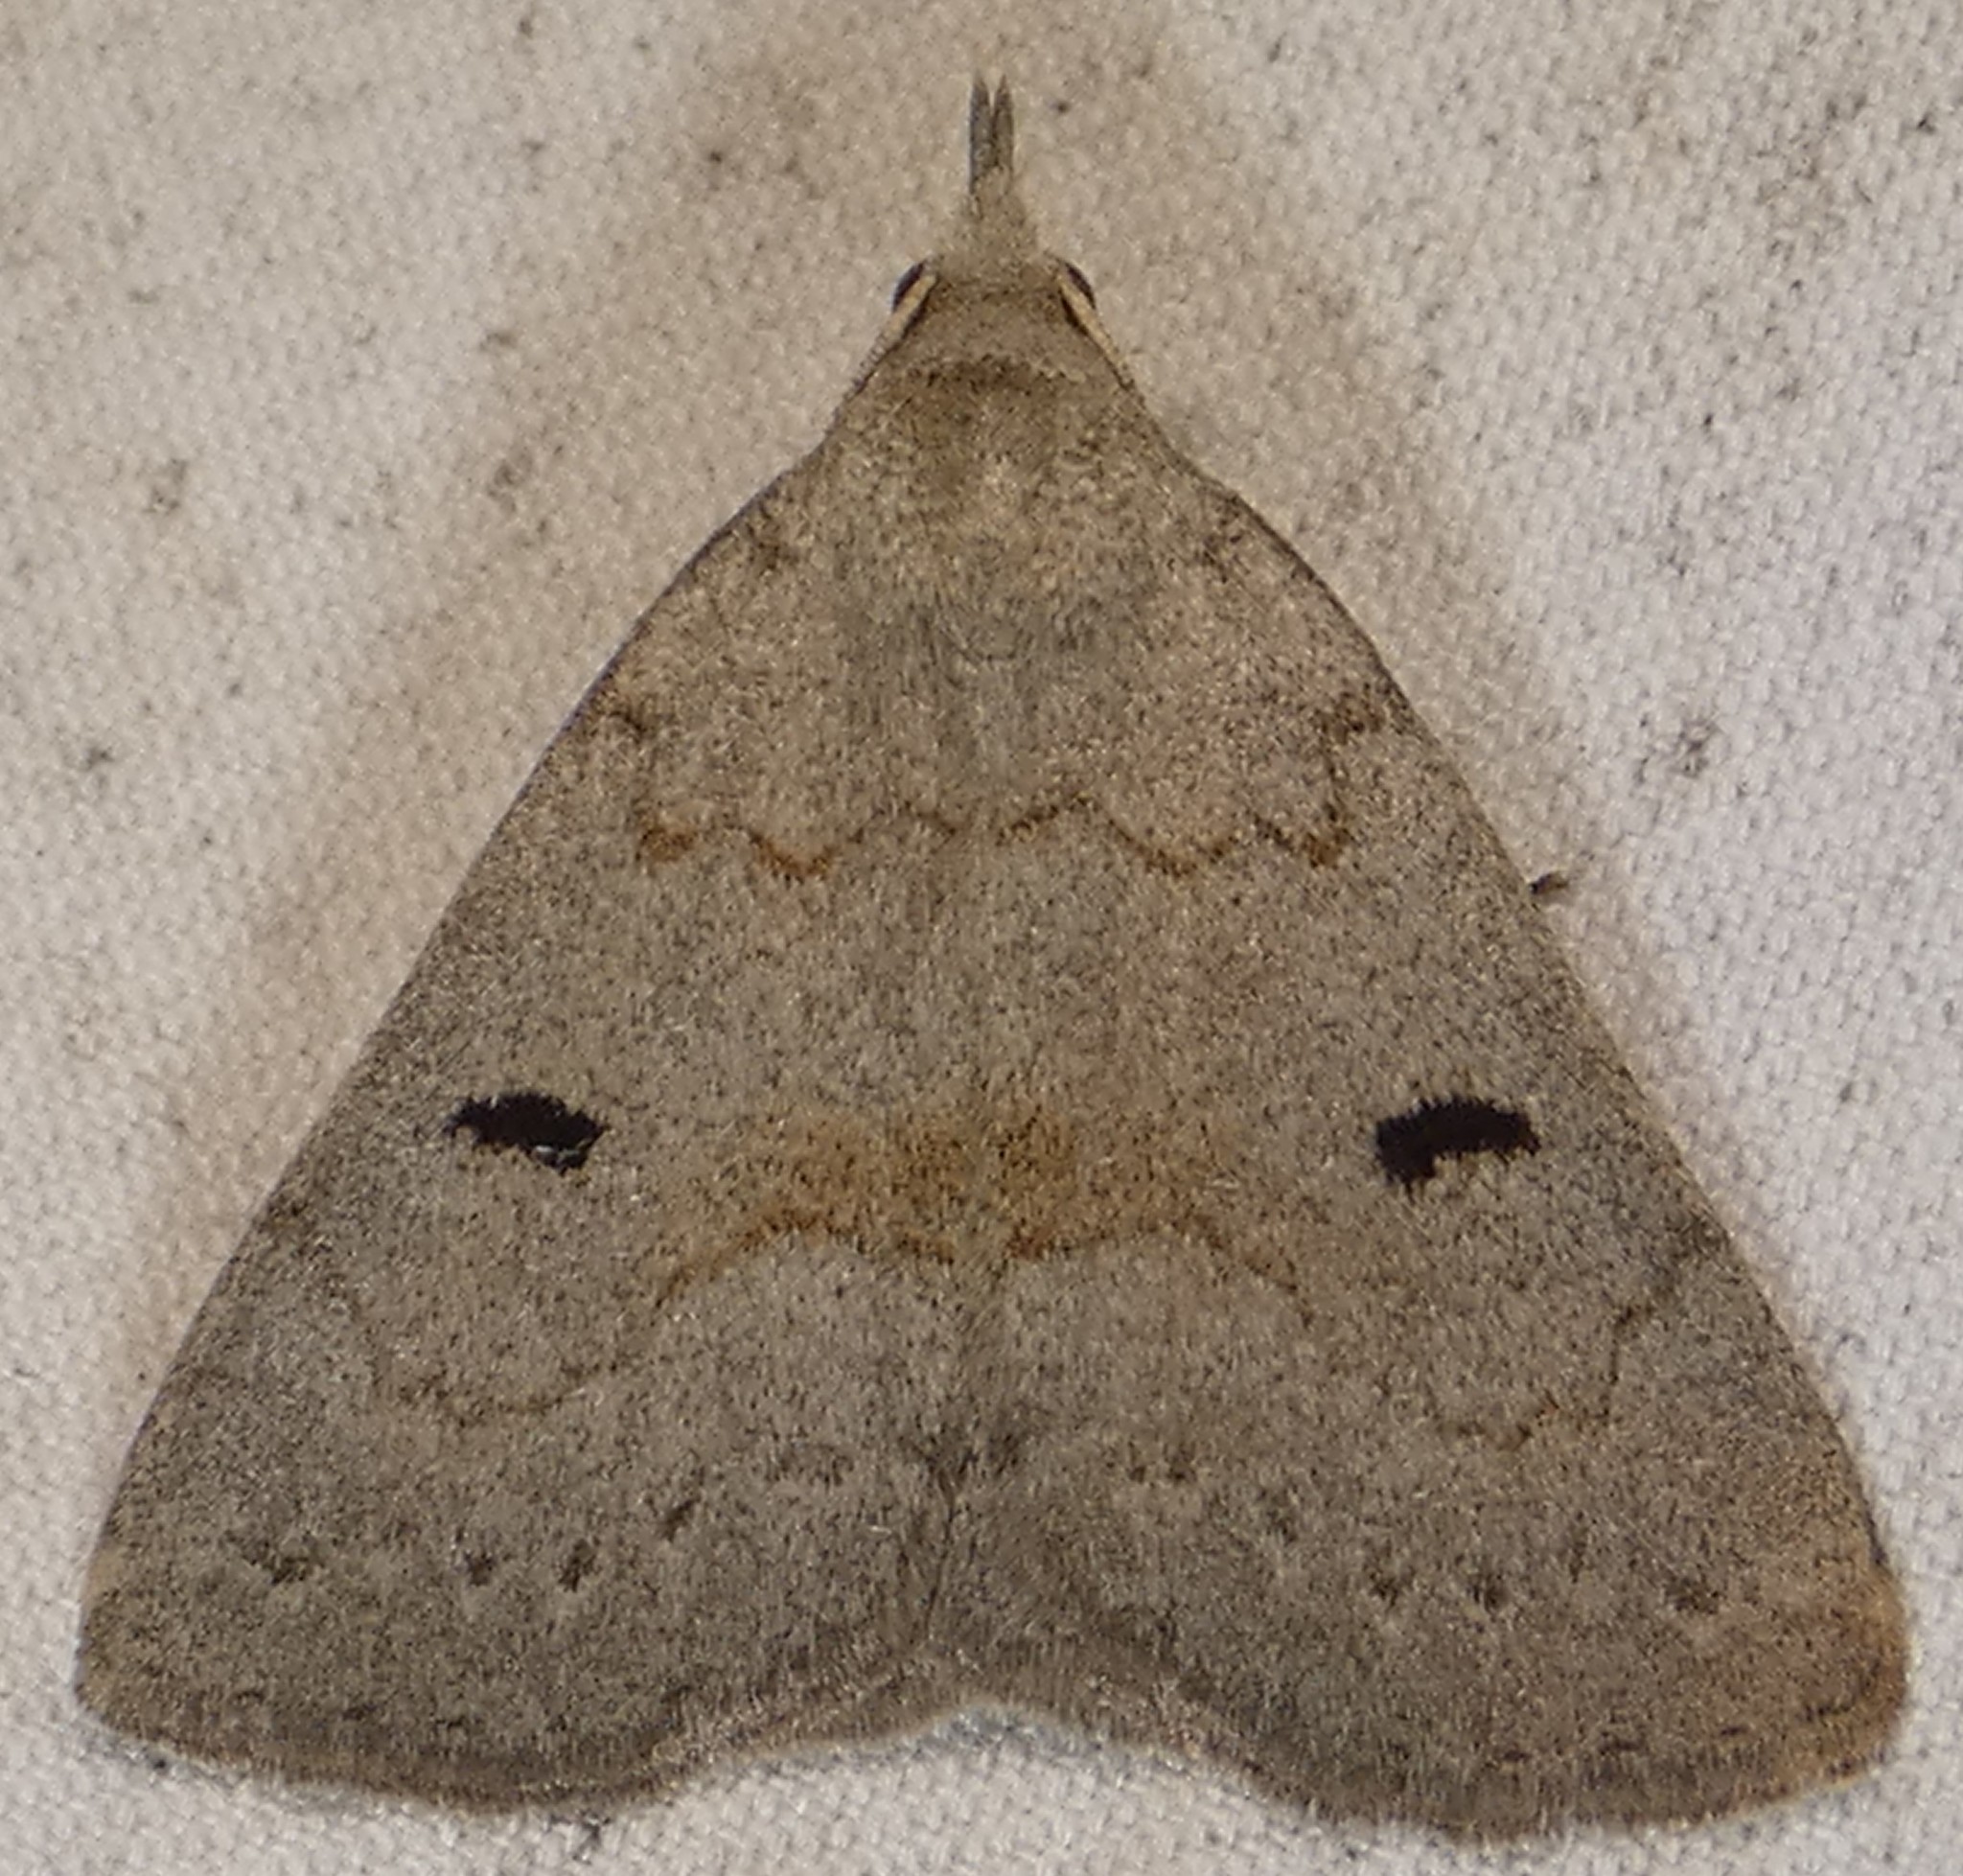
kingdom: Animalia
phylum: Arthropoda
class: Insecta
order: Lepidoptera
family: Erebidae
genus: Macrochilo
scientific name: Macrochilo morbidalis
